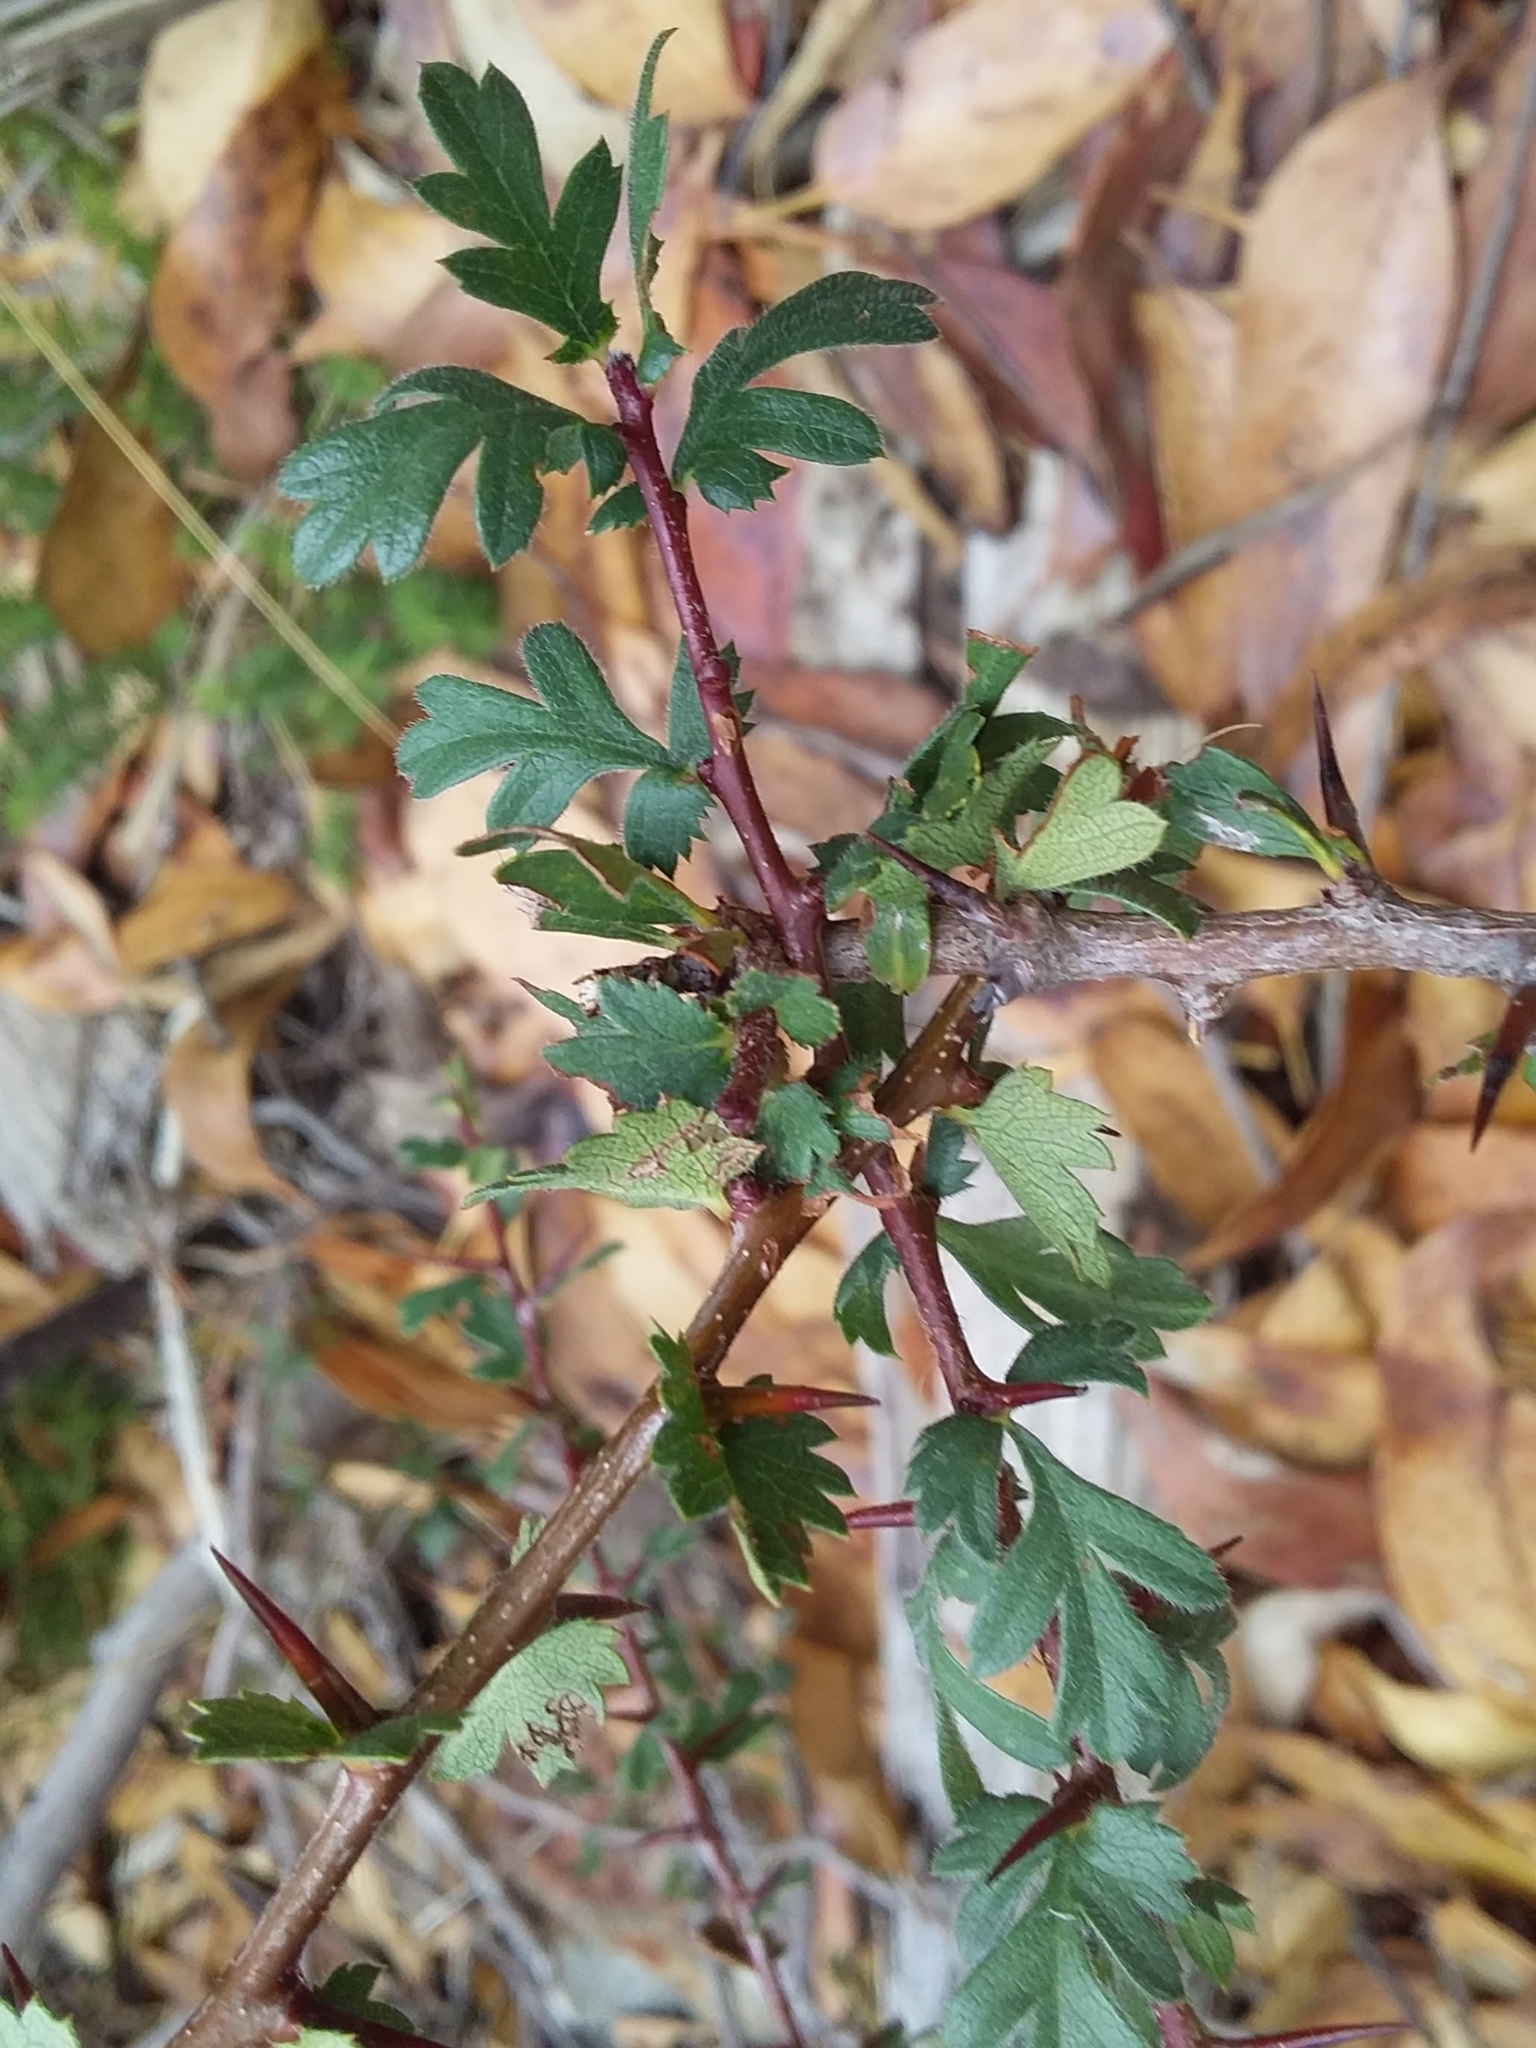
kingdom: Plantae
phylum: Tracheophyta
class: Magnoliopsida
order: Rosales
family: Rosaceae
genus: Crataegus
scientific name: Crataegus monogyna
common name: Hawthorn
